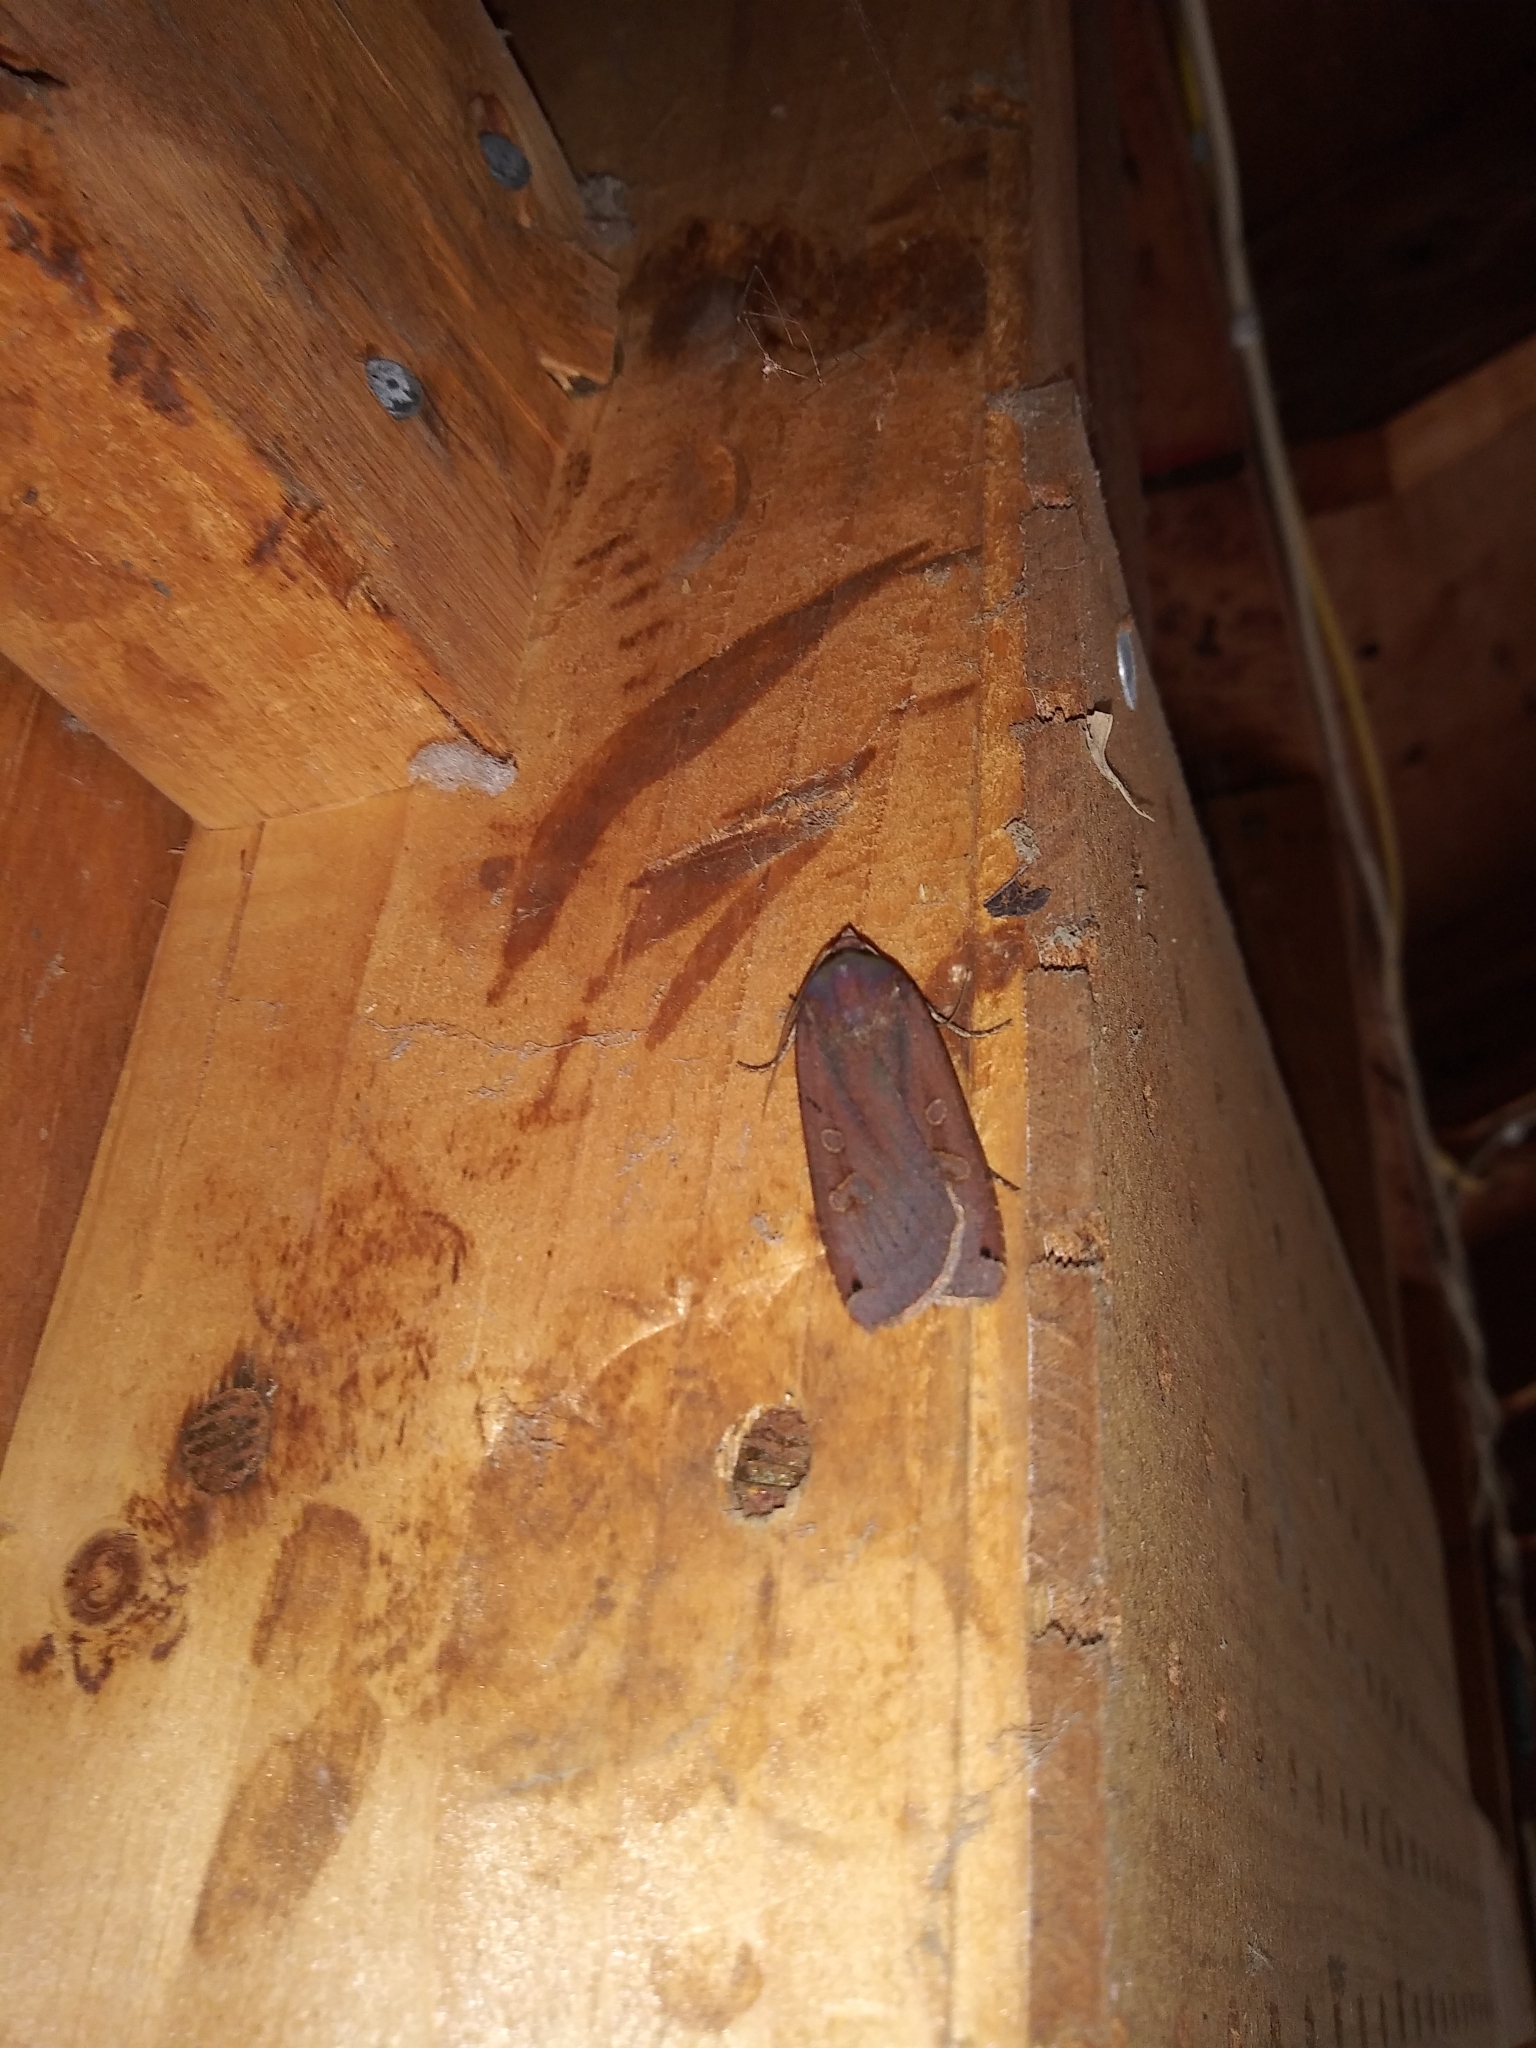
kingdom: Animalia
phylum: Arthropoda
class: Insecta
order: Lepidoptera
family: Noctuidae
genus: Noctua
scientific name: Noctua pronuba
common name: Large yellow underwing
